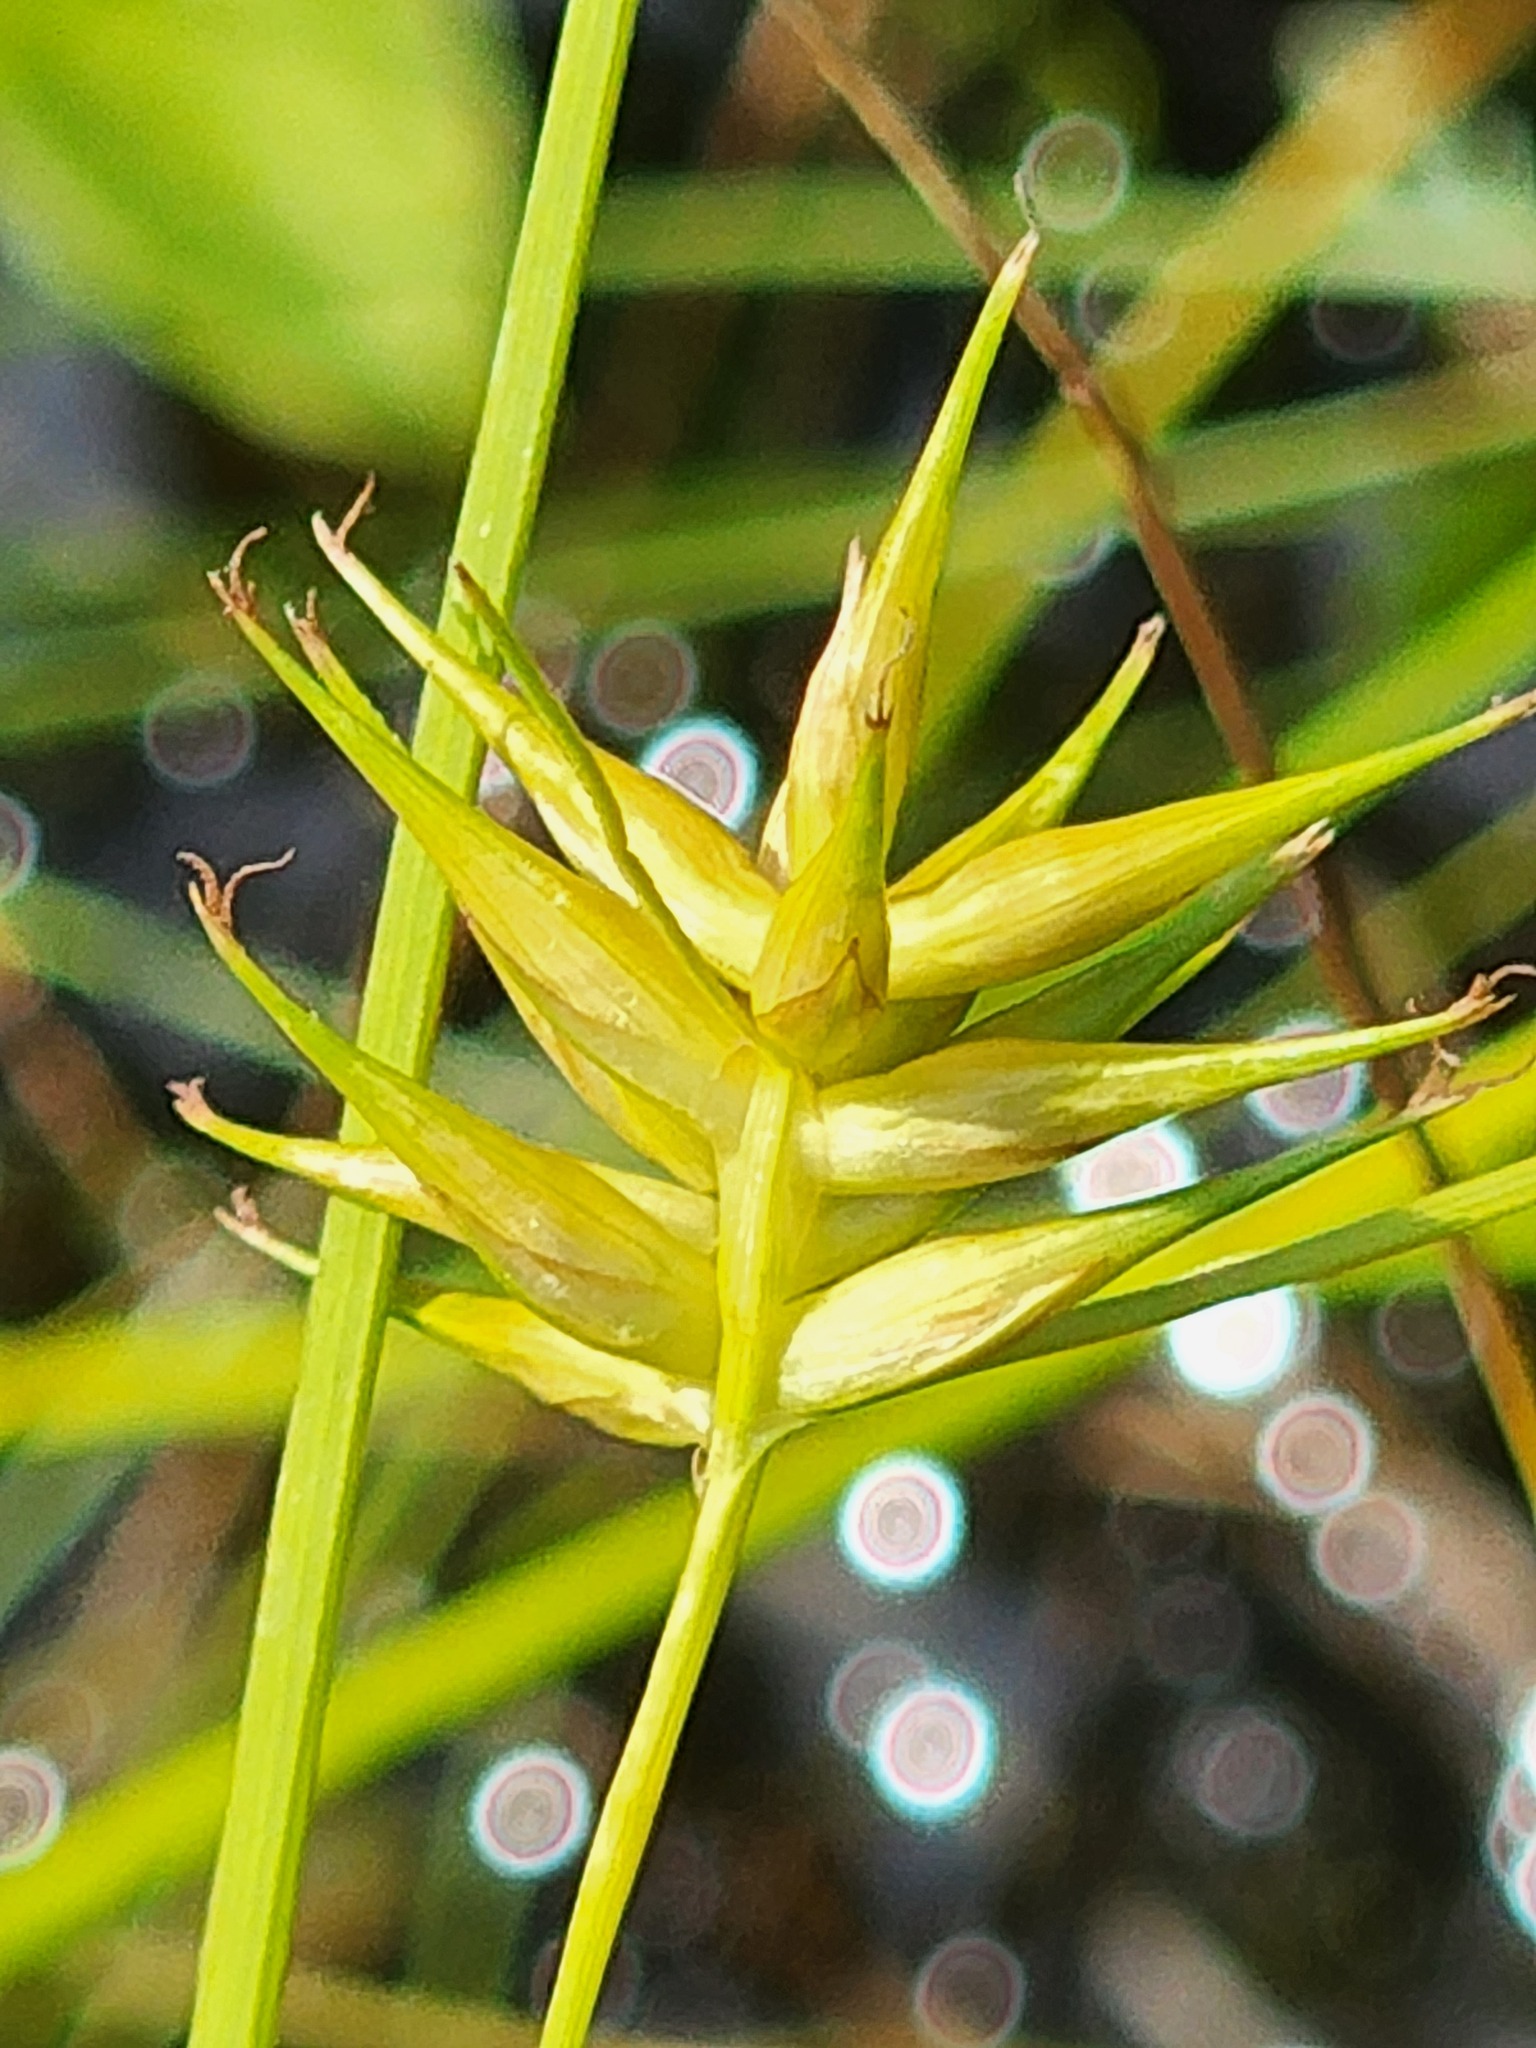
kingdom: Plantae
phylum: Tracheophyta
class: Liliopsida
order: Poales
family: Cyperaceae
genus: Carex
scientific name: Carex michauxiana
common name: Michaux's sedge
